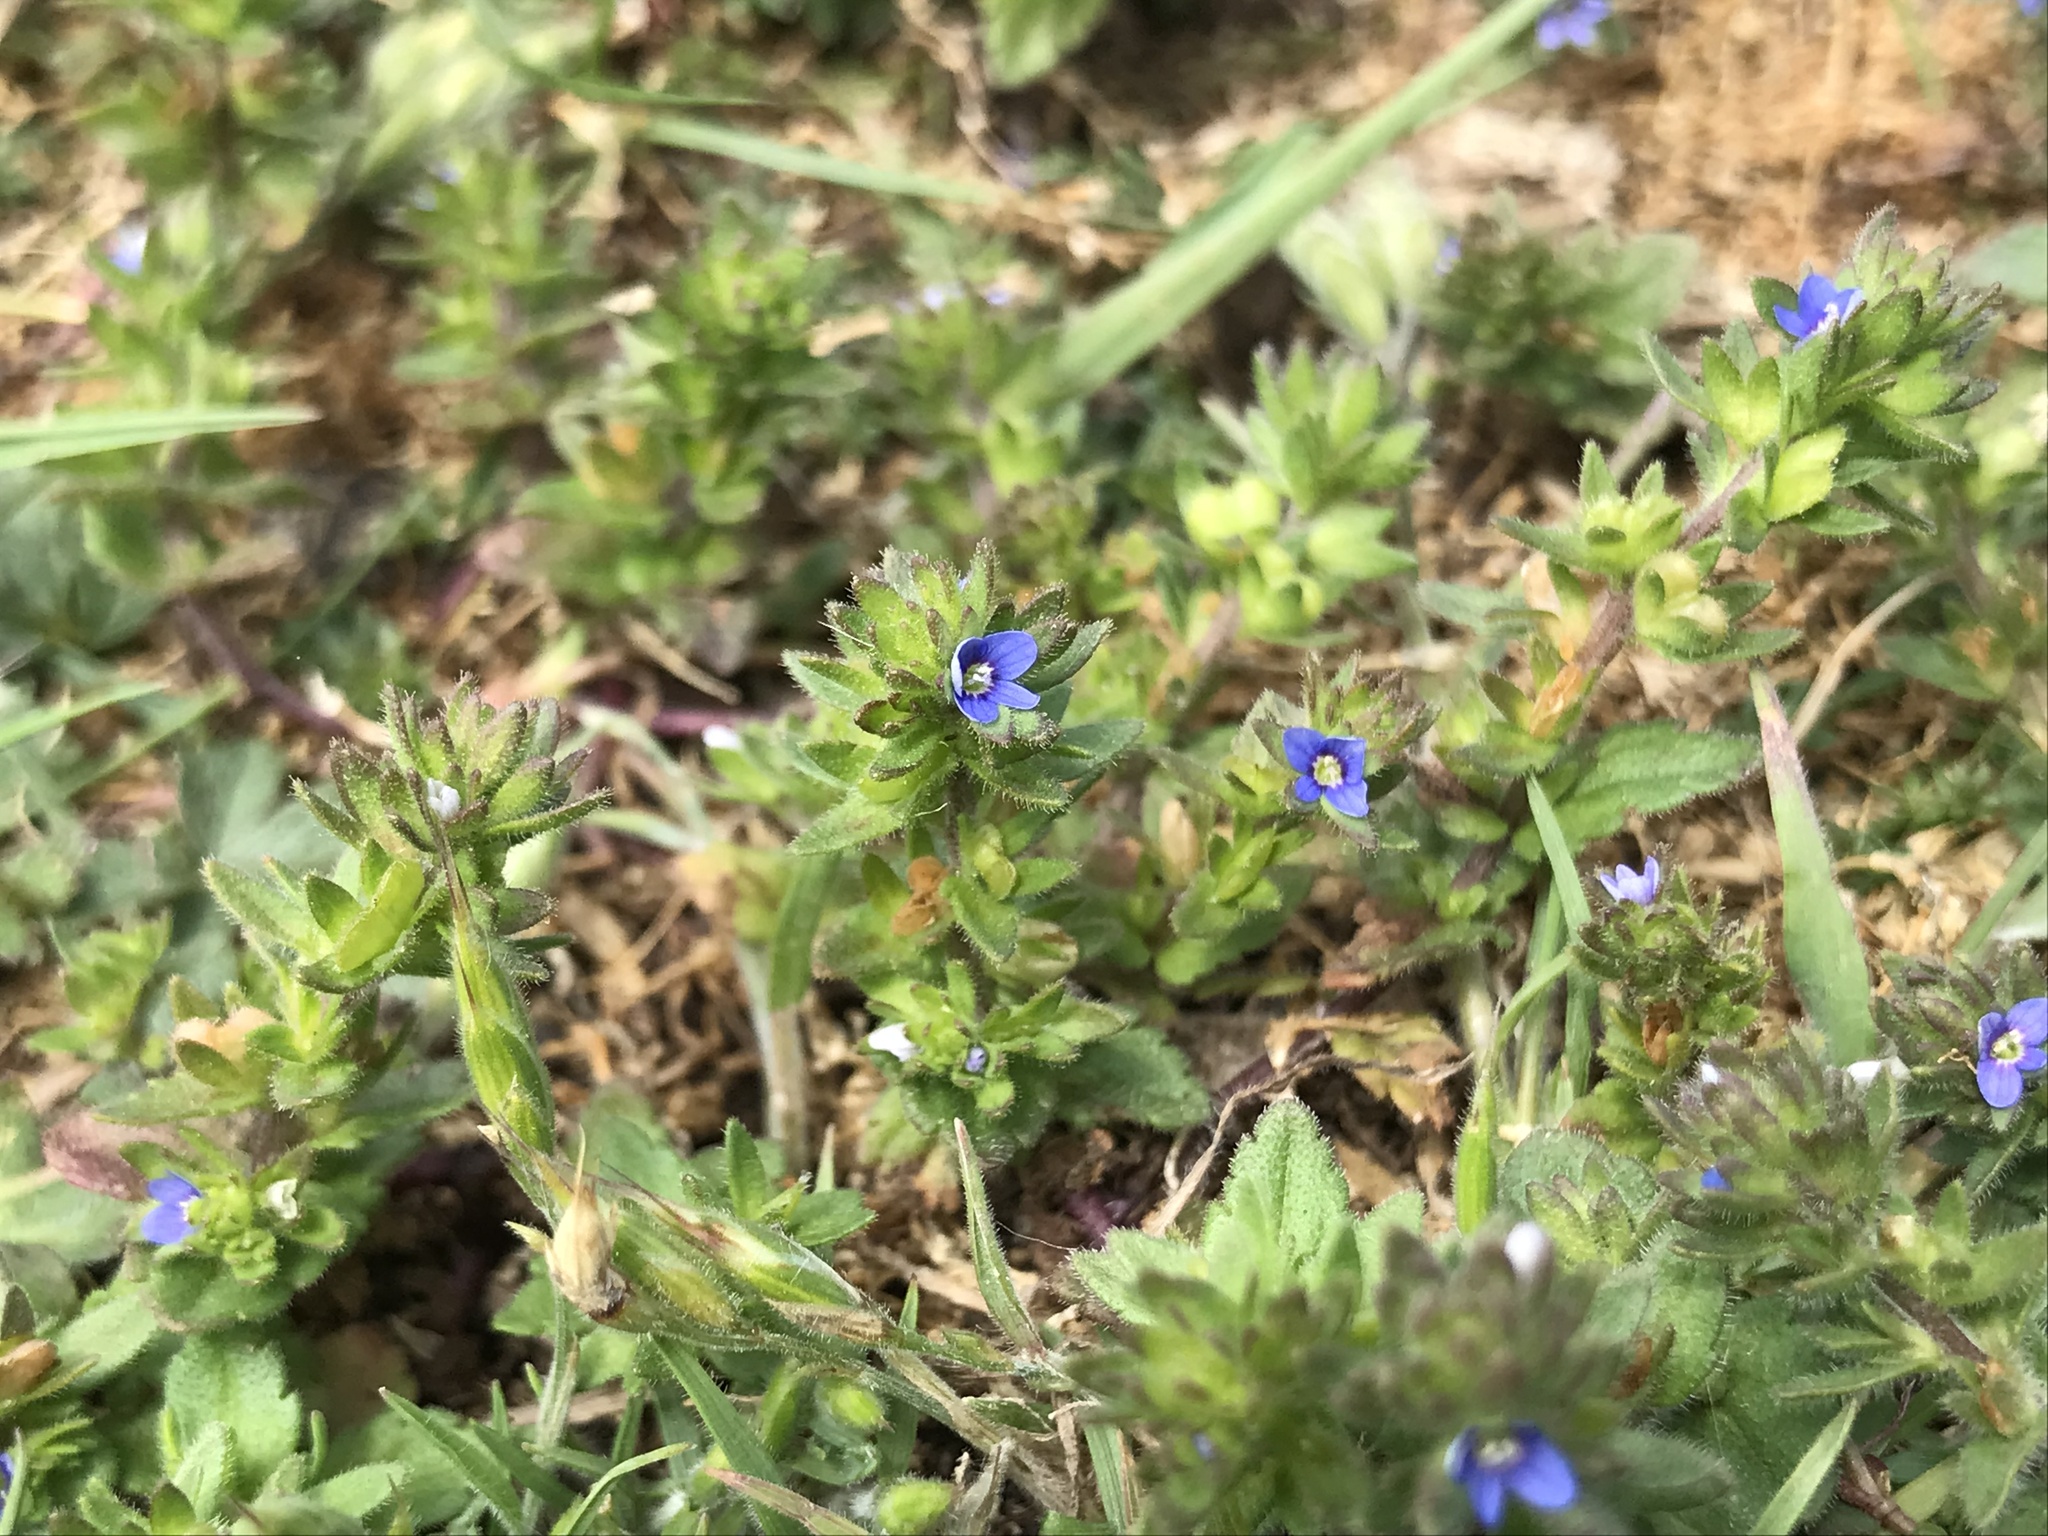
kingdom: Plantae
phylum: Tracheophyta
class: Magnoliopsida
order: Lamiales
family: Plantaginaceae
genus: Veronica
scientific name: Veronica arvensis
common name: Corn speedwell
